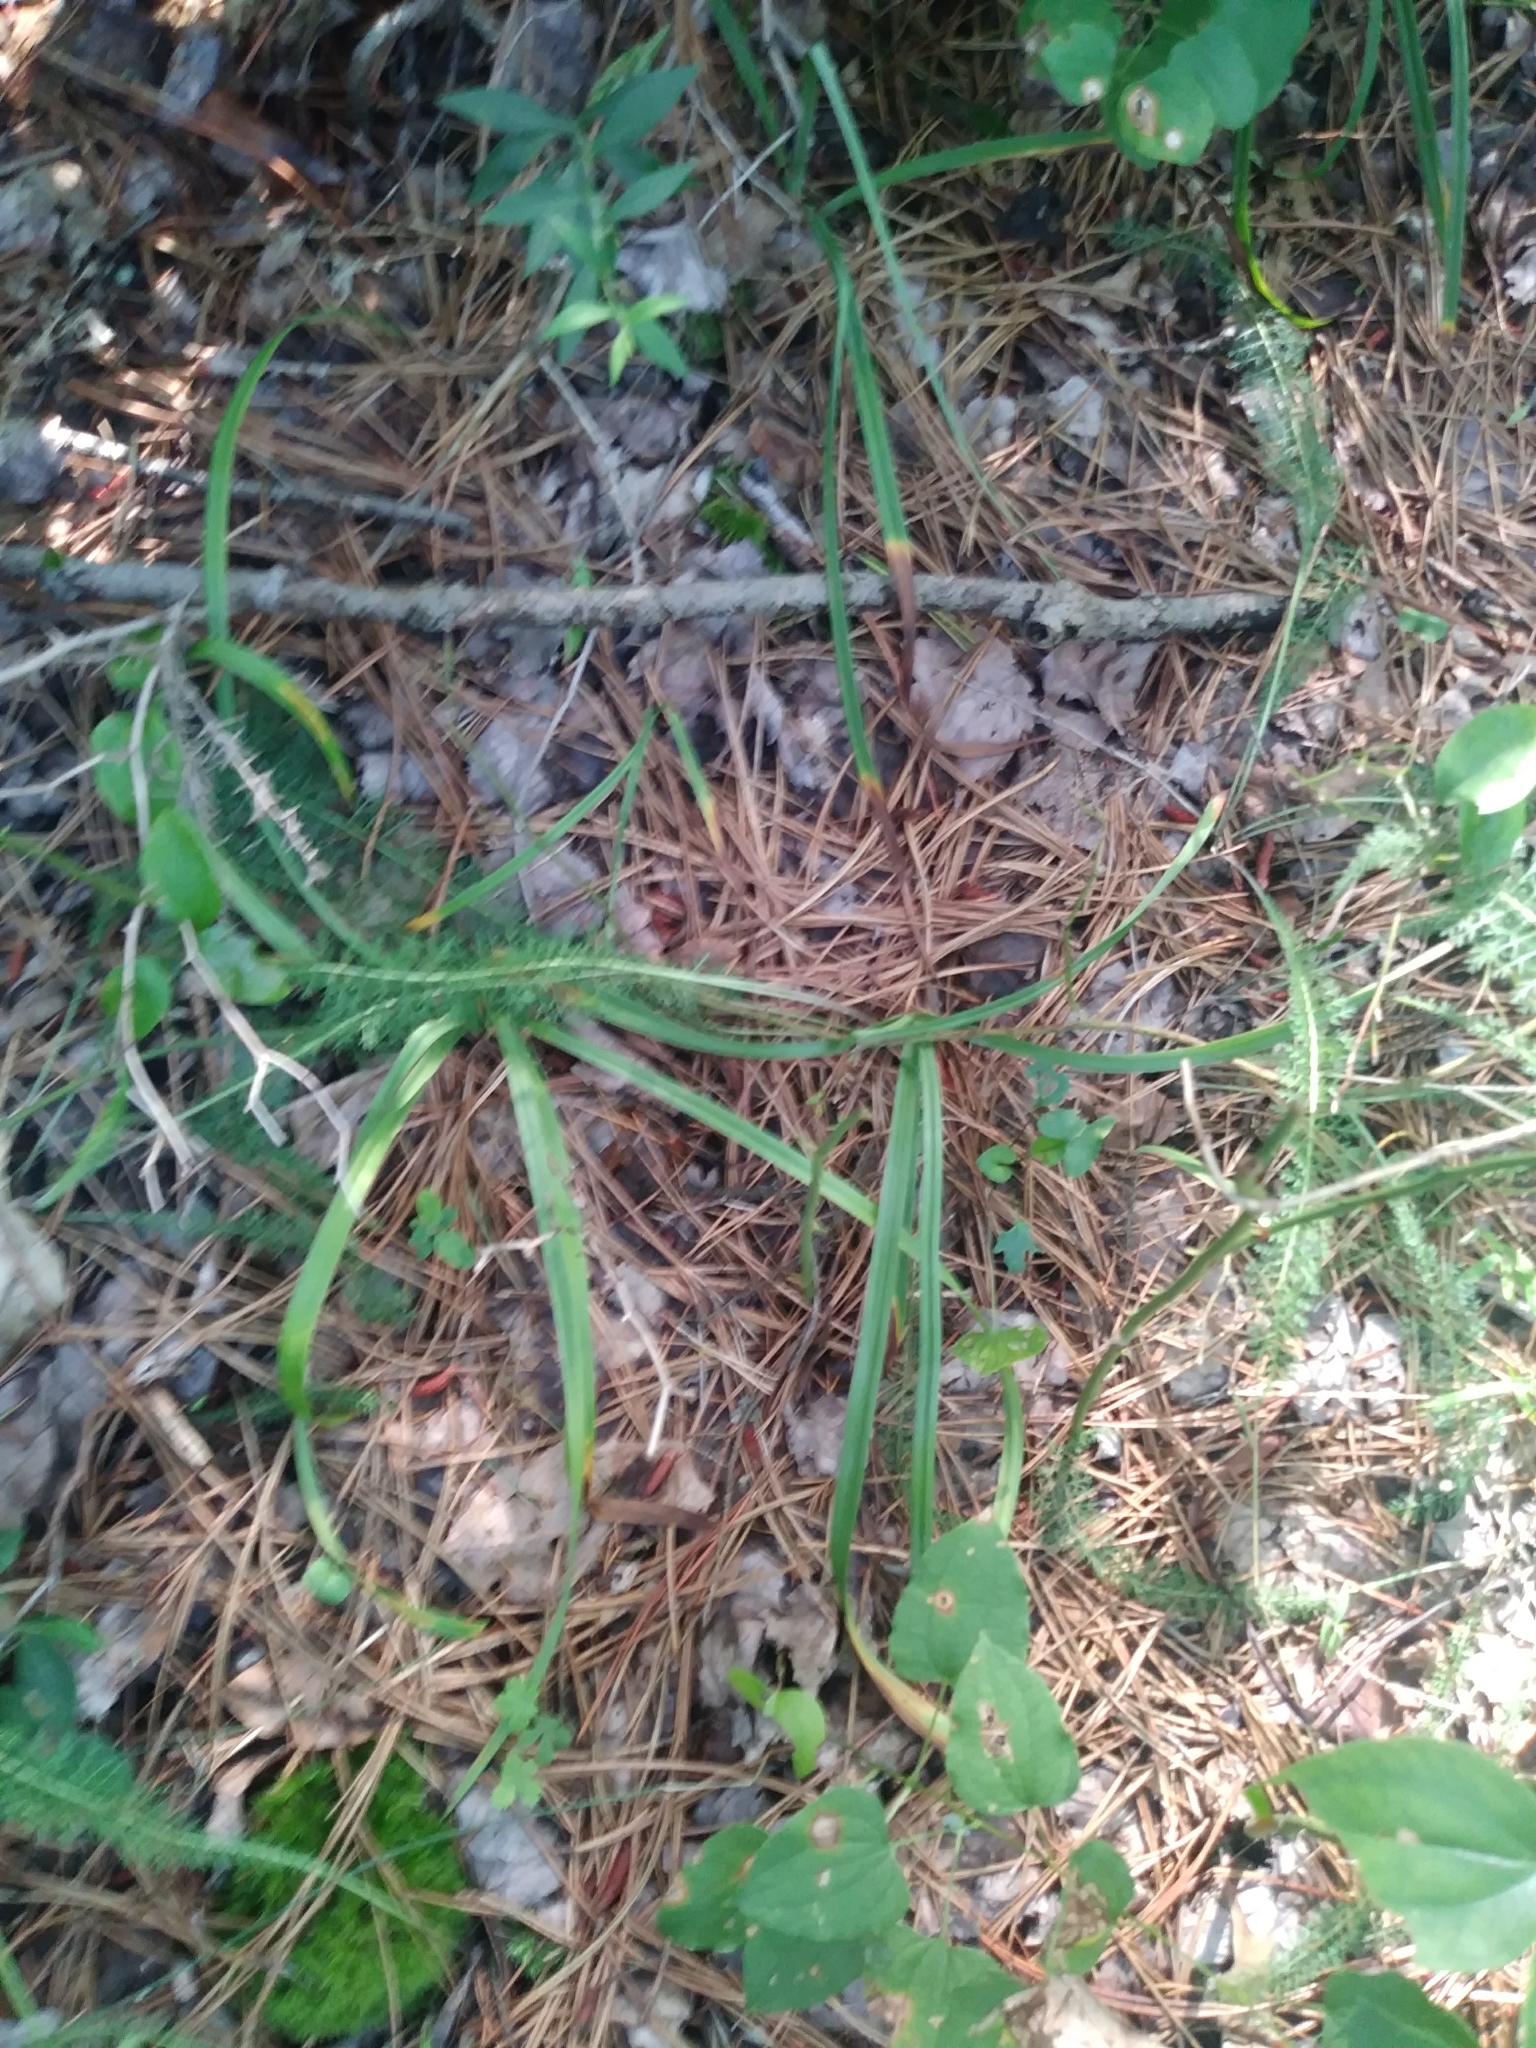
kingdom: Plantae
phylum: Tracheophyta
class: Liliopsida
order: Liliales
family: Melanthiaceae
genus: Amianthium
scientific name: Amianthium muscitoxicum
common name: Fly-poison
